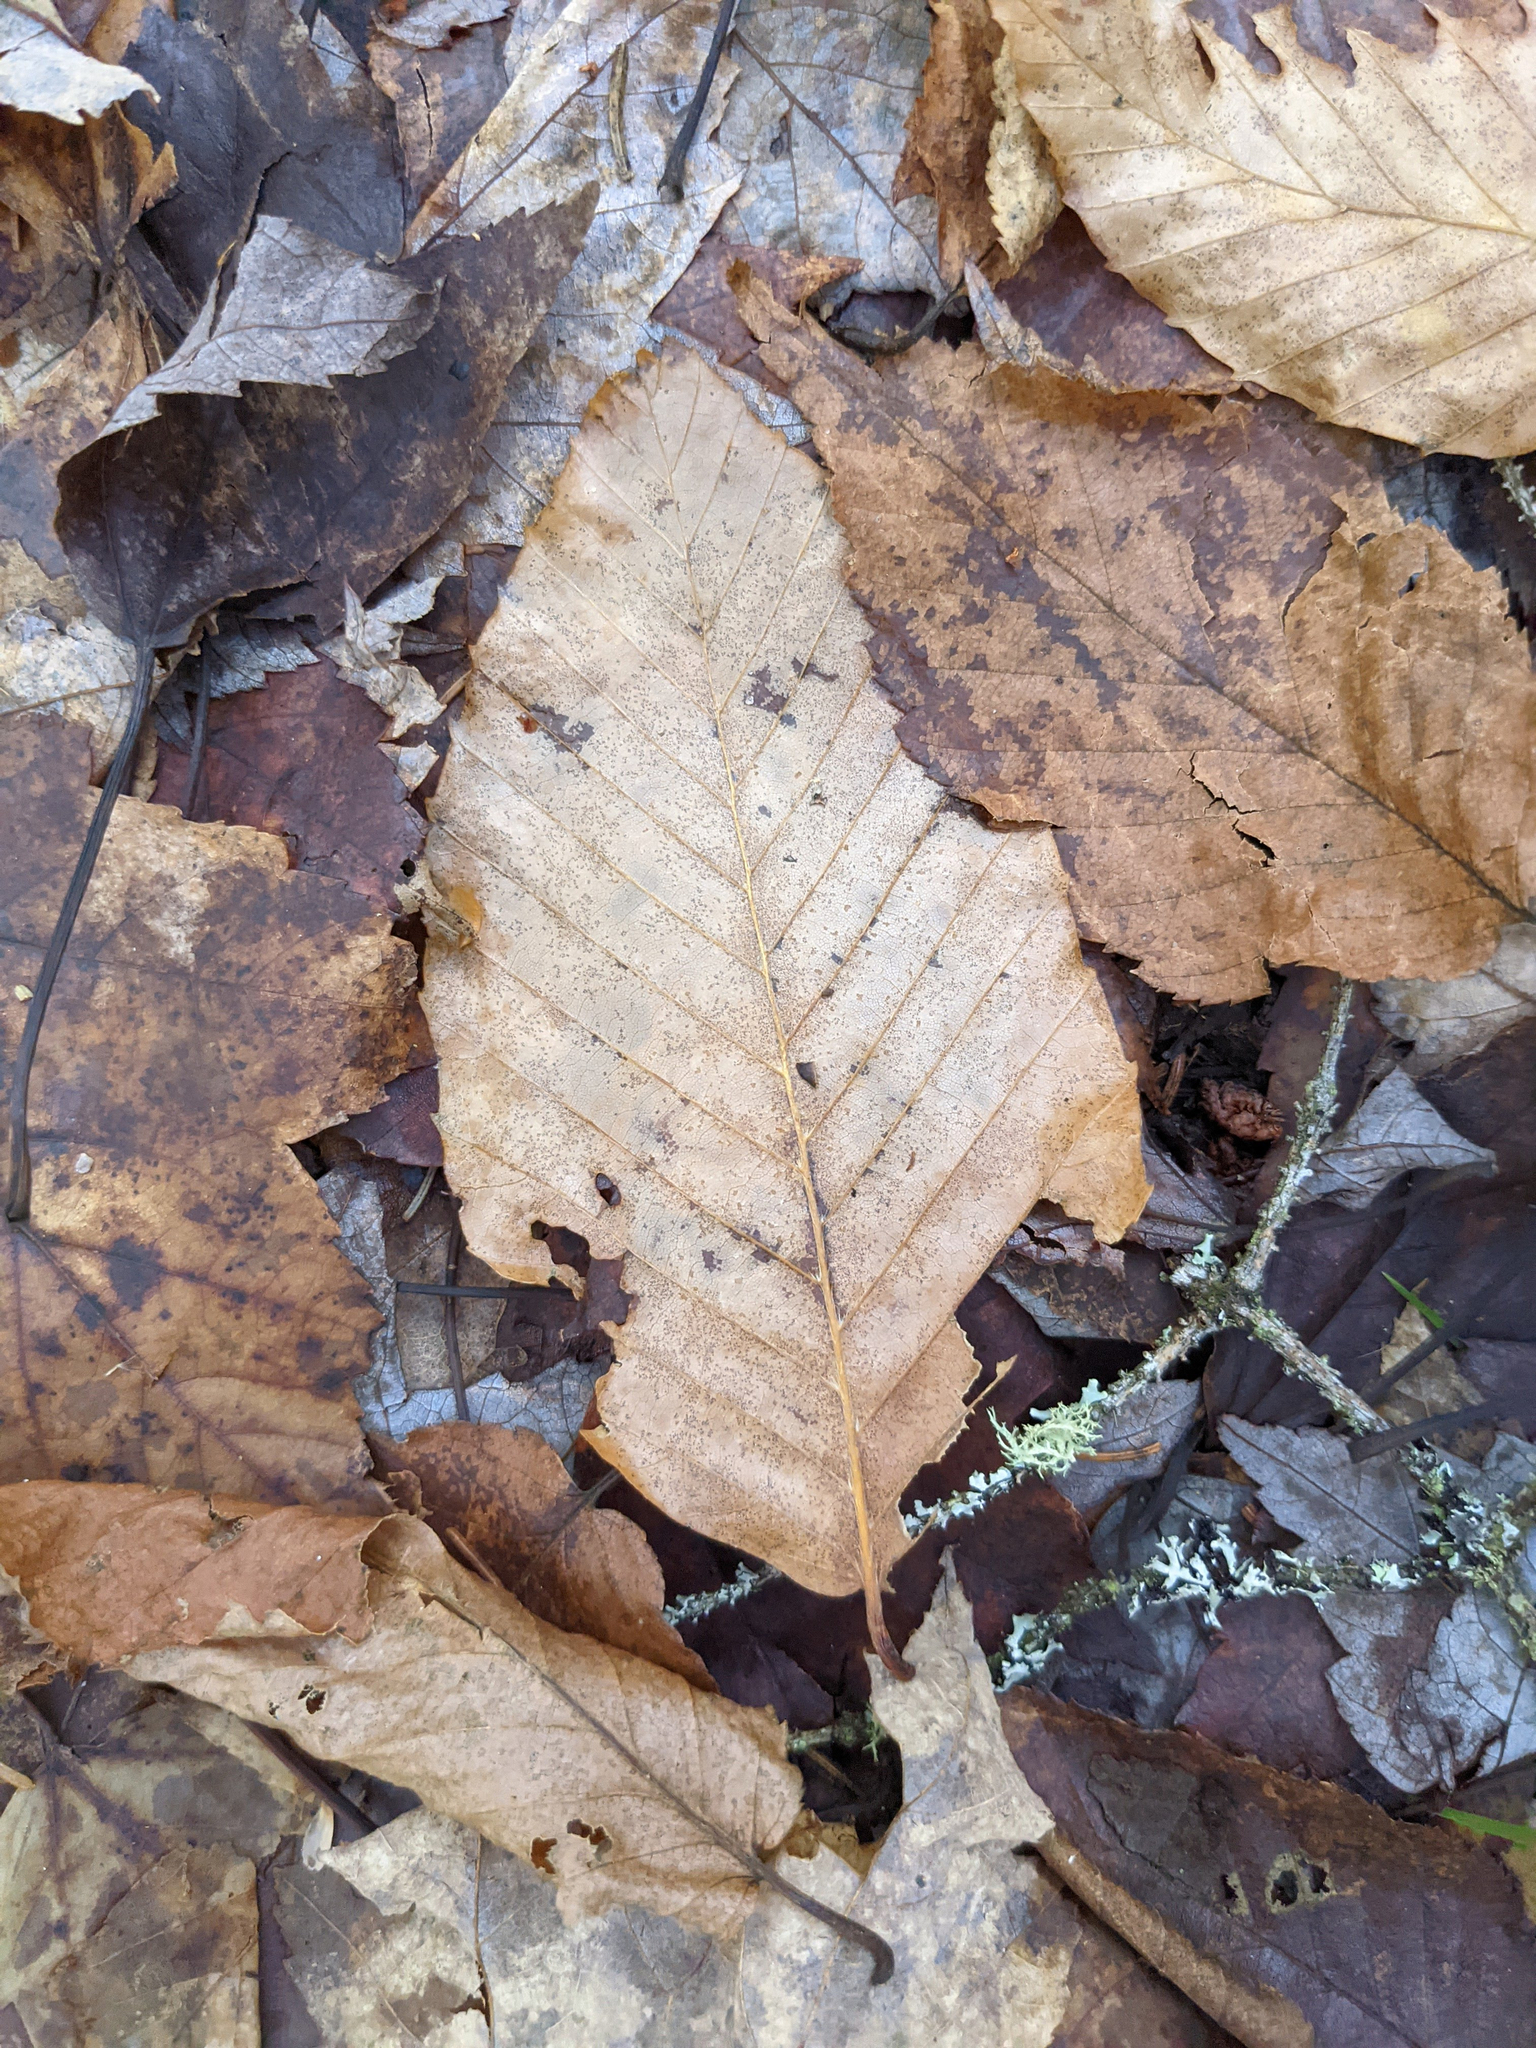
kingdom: Plantae
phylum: Tracheophyta
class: Magnoliopsida
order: Fagales
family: Fagaceae
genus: Fagus
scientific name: Fagus grandifolia
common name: American beech
